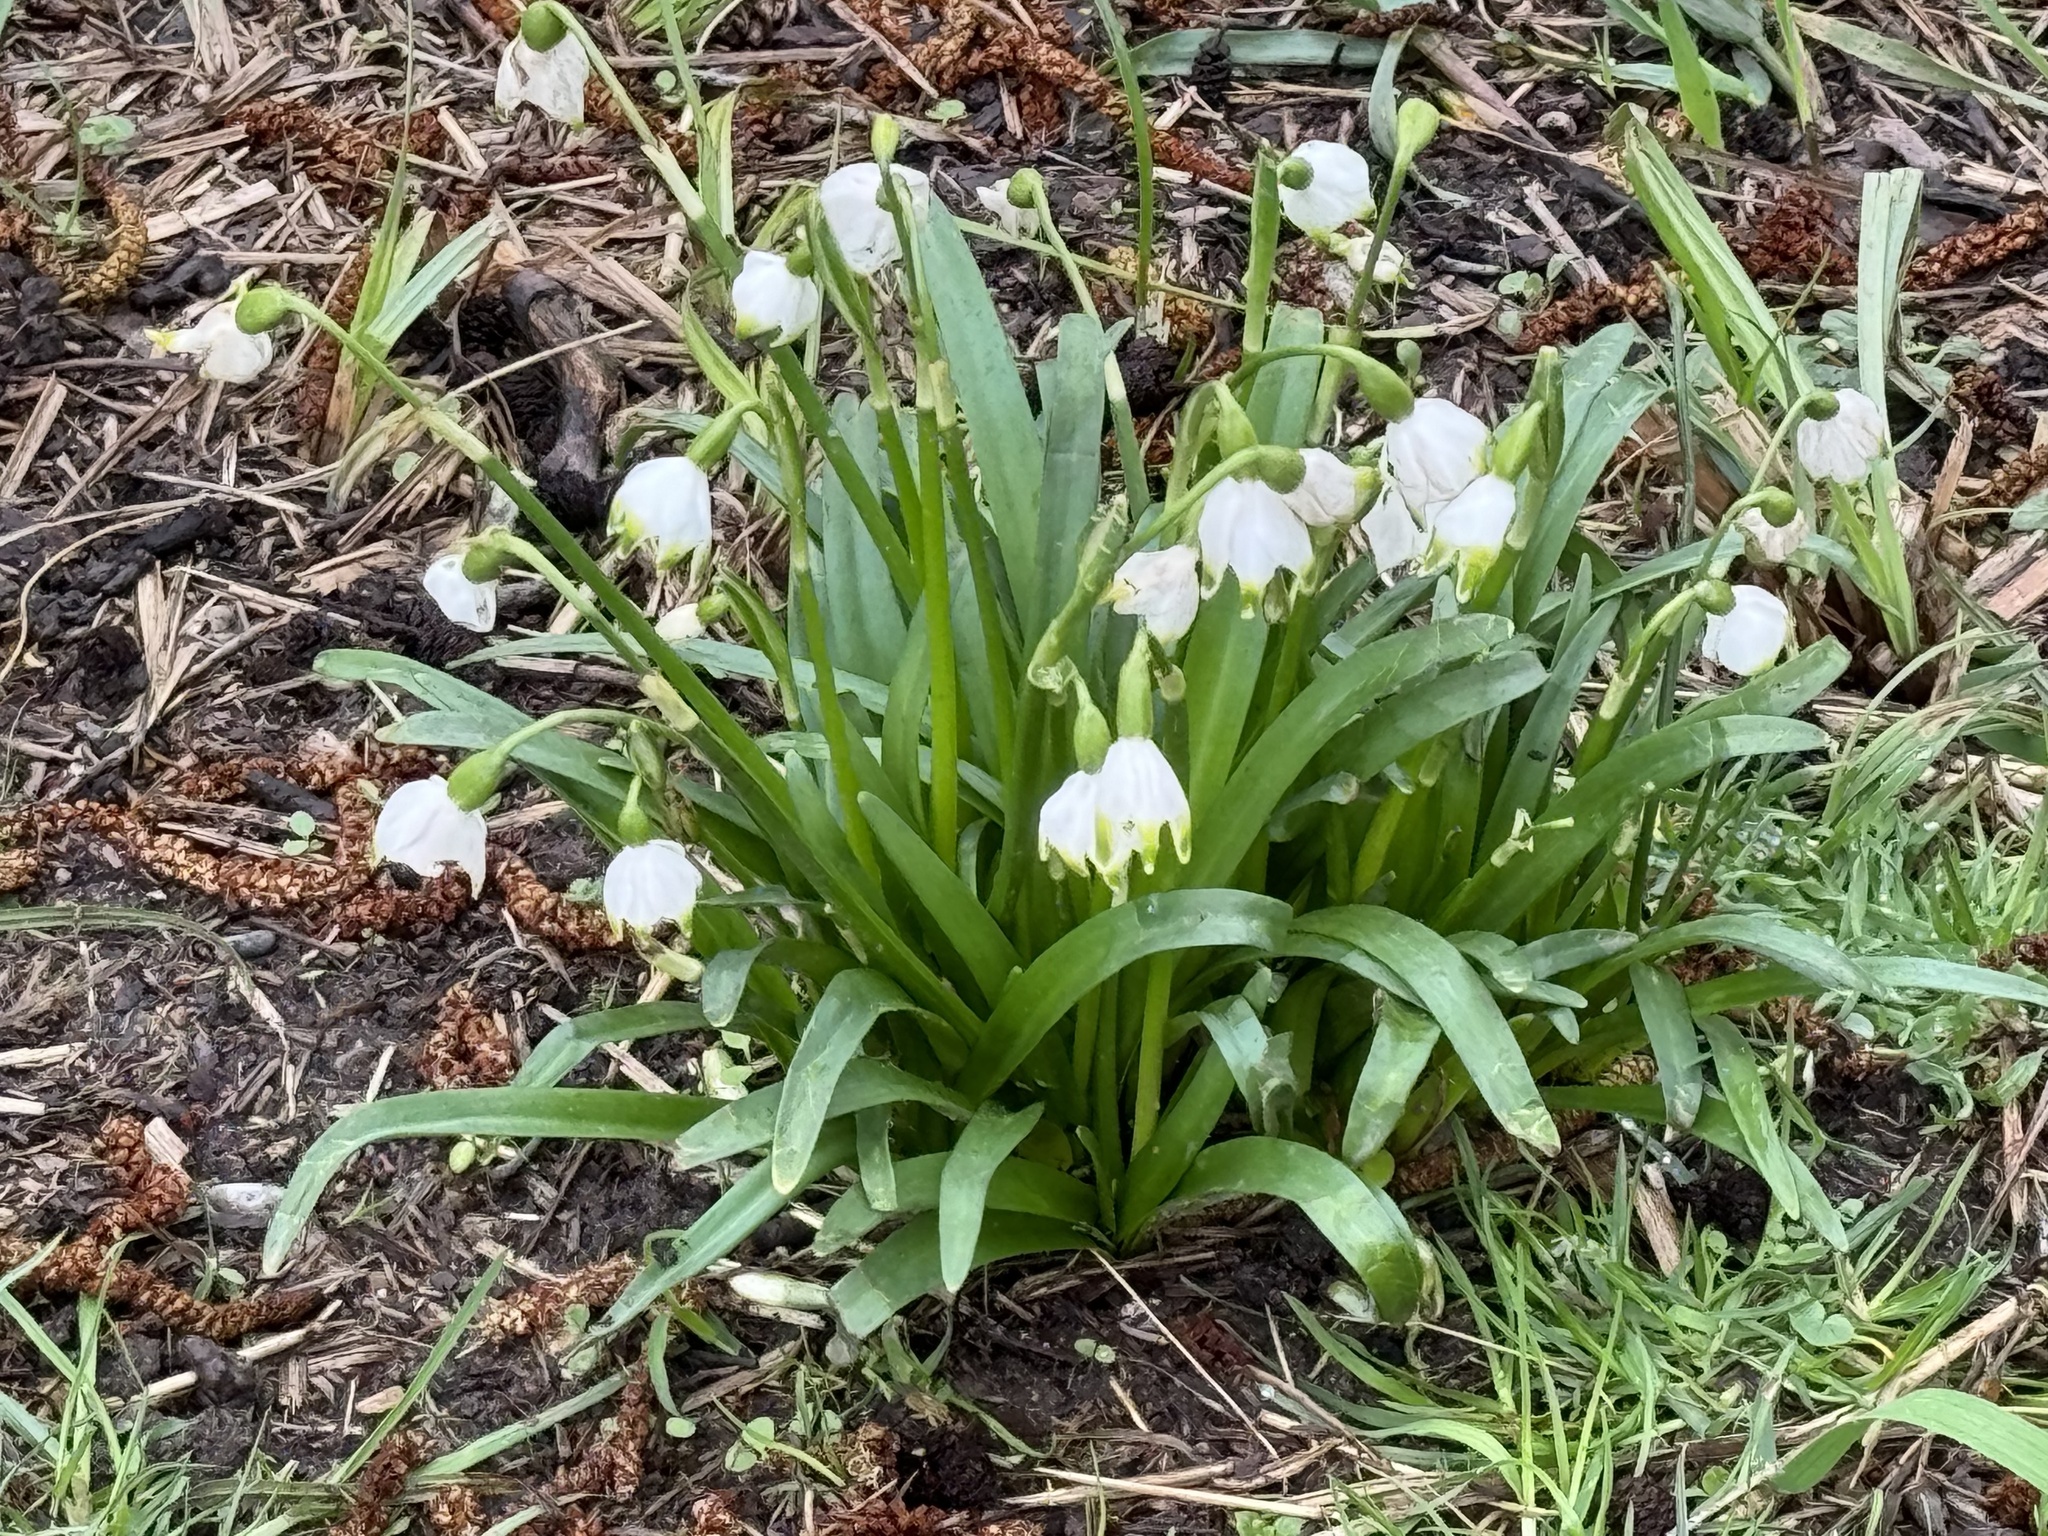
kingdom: Plantae
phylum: Tracheophyta
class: Liliopsida
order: Asparagales
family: Amaryllidaceae
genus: Leucojum
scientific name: Leucojum vernum
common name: Spring snowflake
